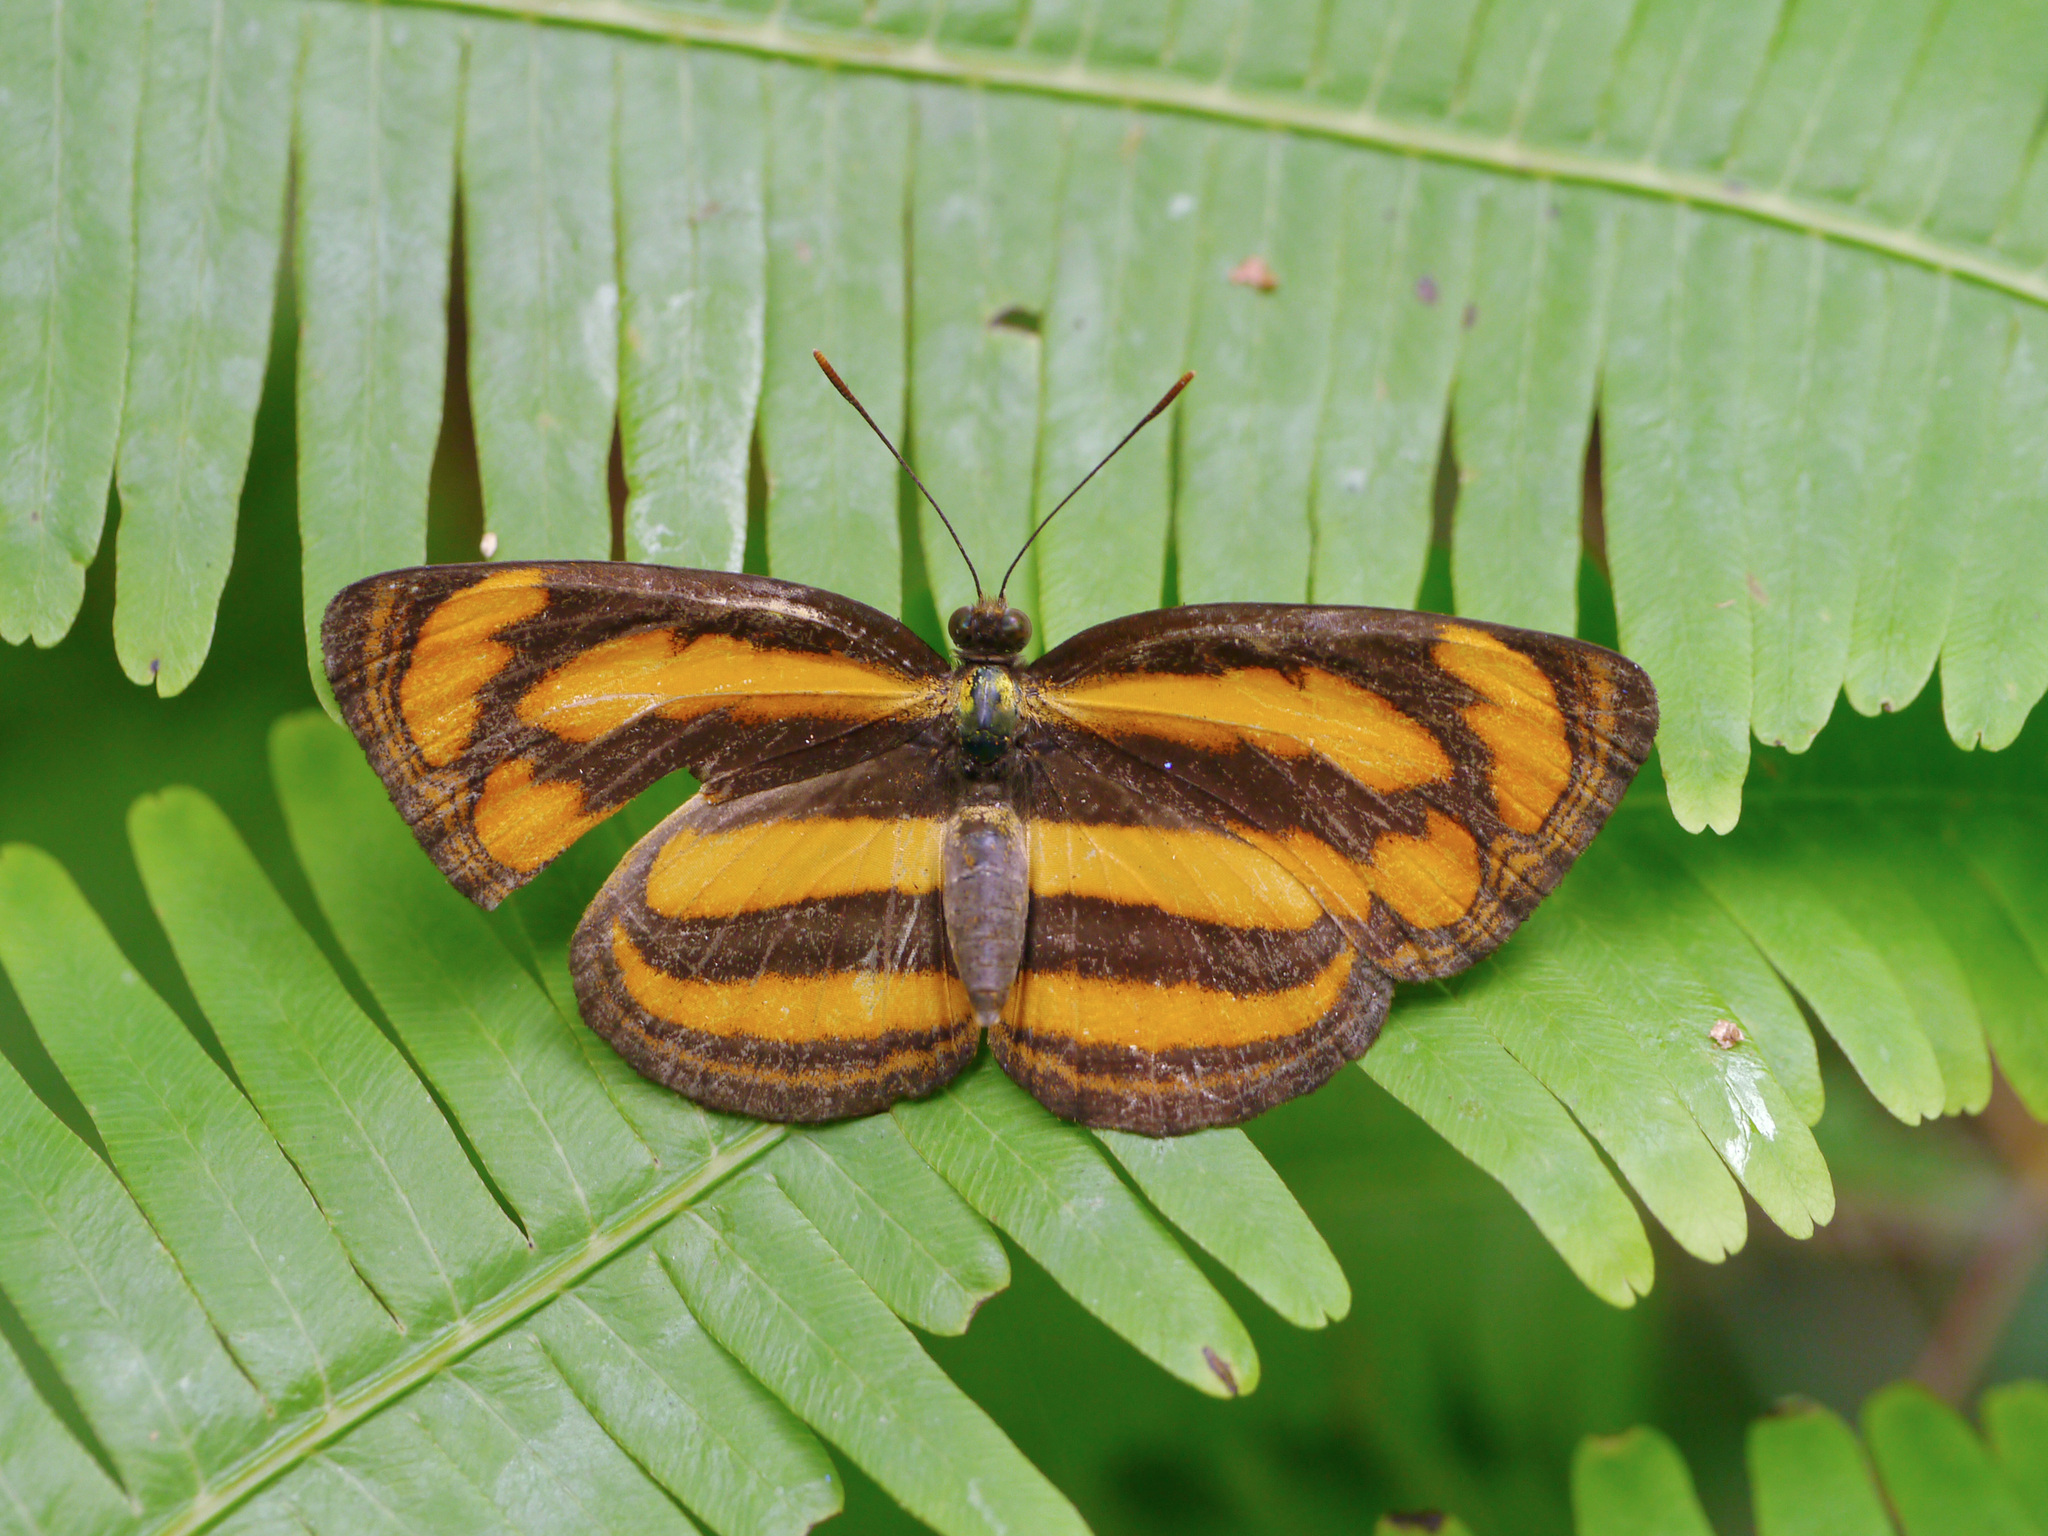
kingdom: Animalia
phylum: Arthropoda
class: Insecta
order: Lepidoptera
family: Nymphalidae
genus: Pantoporia
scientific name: Pantoporia paraka
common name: Perak lascar
